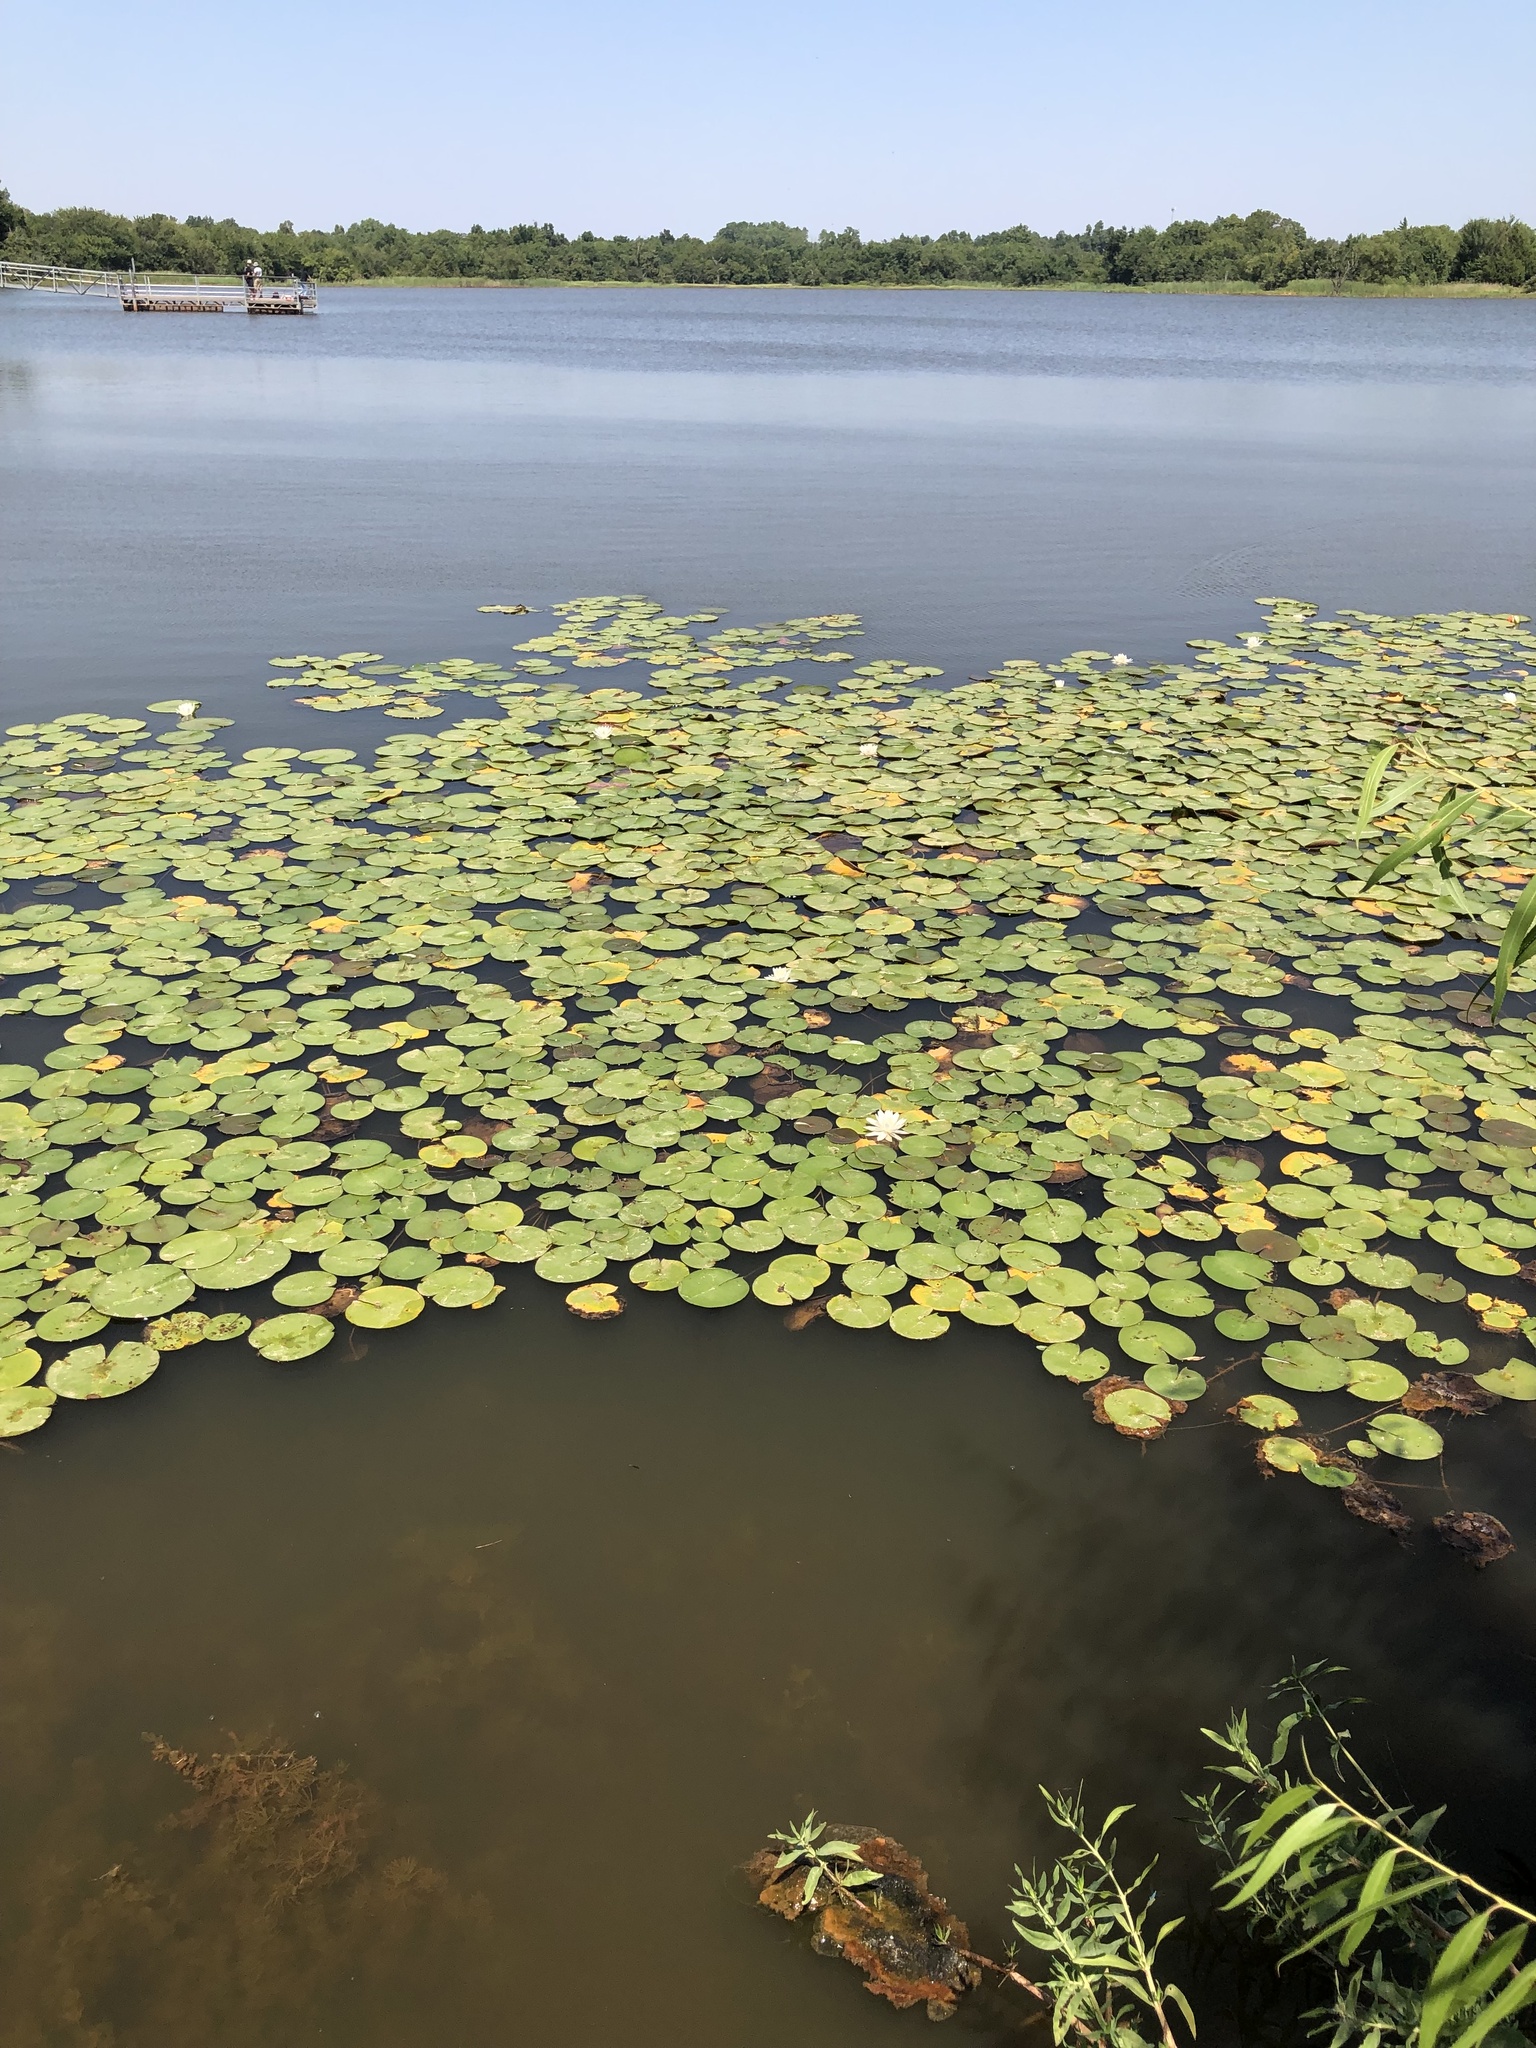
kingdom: Plantae
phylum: Tracheophyta
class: Magnoliopsida
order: Nymphaeales
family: Nymphaeaceae
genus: Nymphaea
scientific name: Nymphaea odorata
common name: Fragrant water-lily
